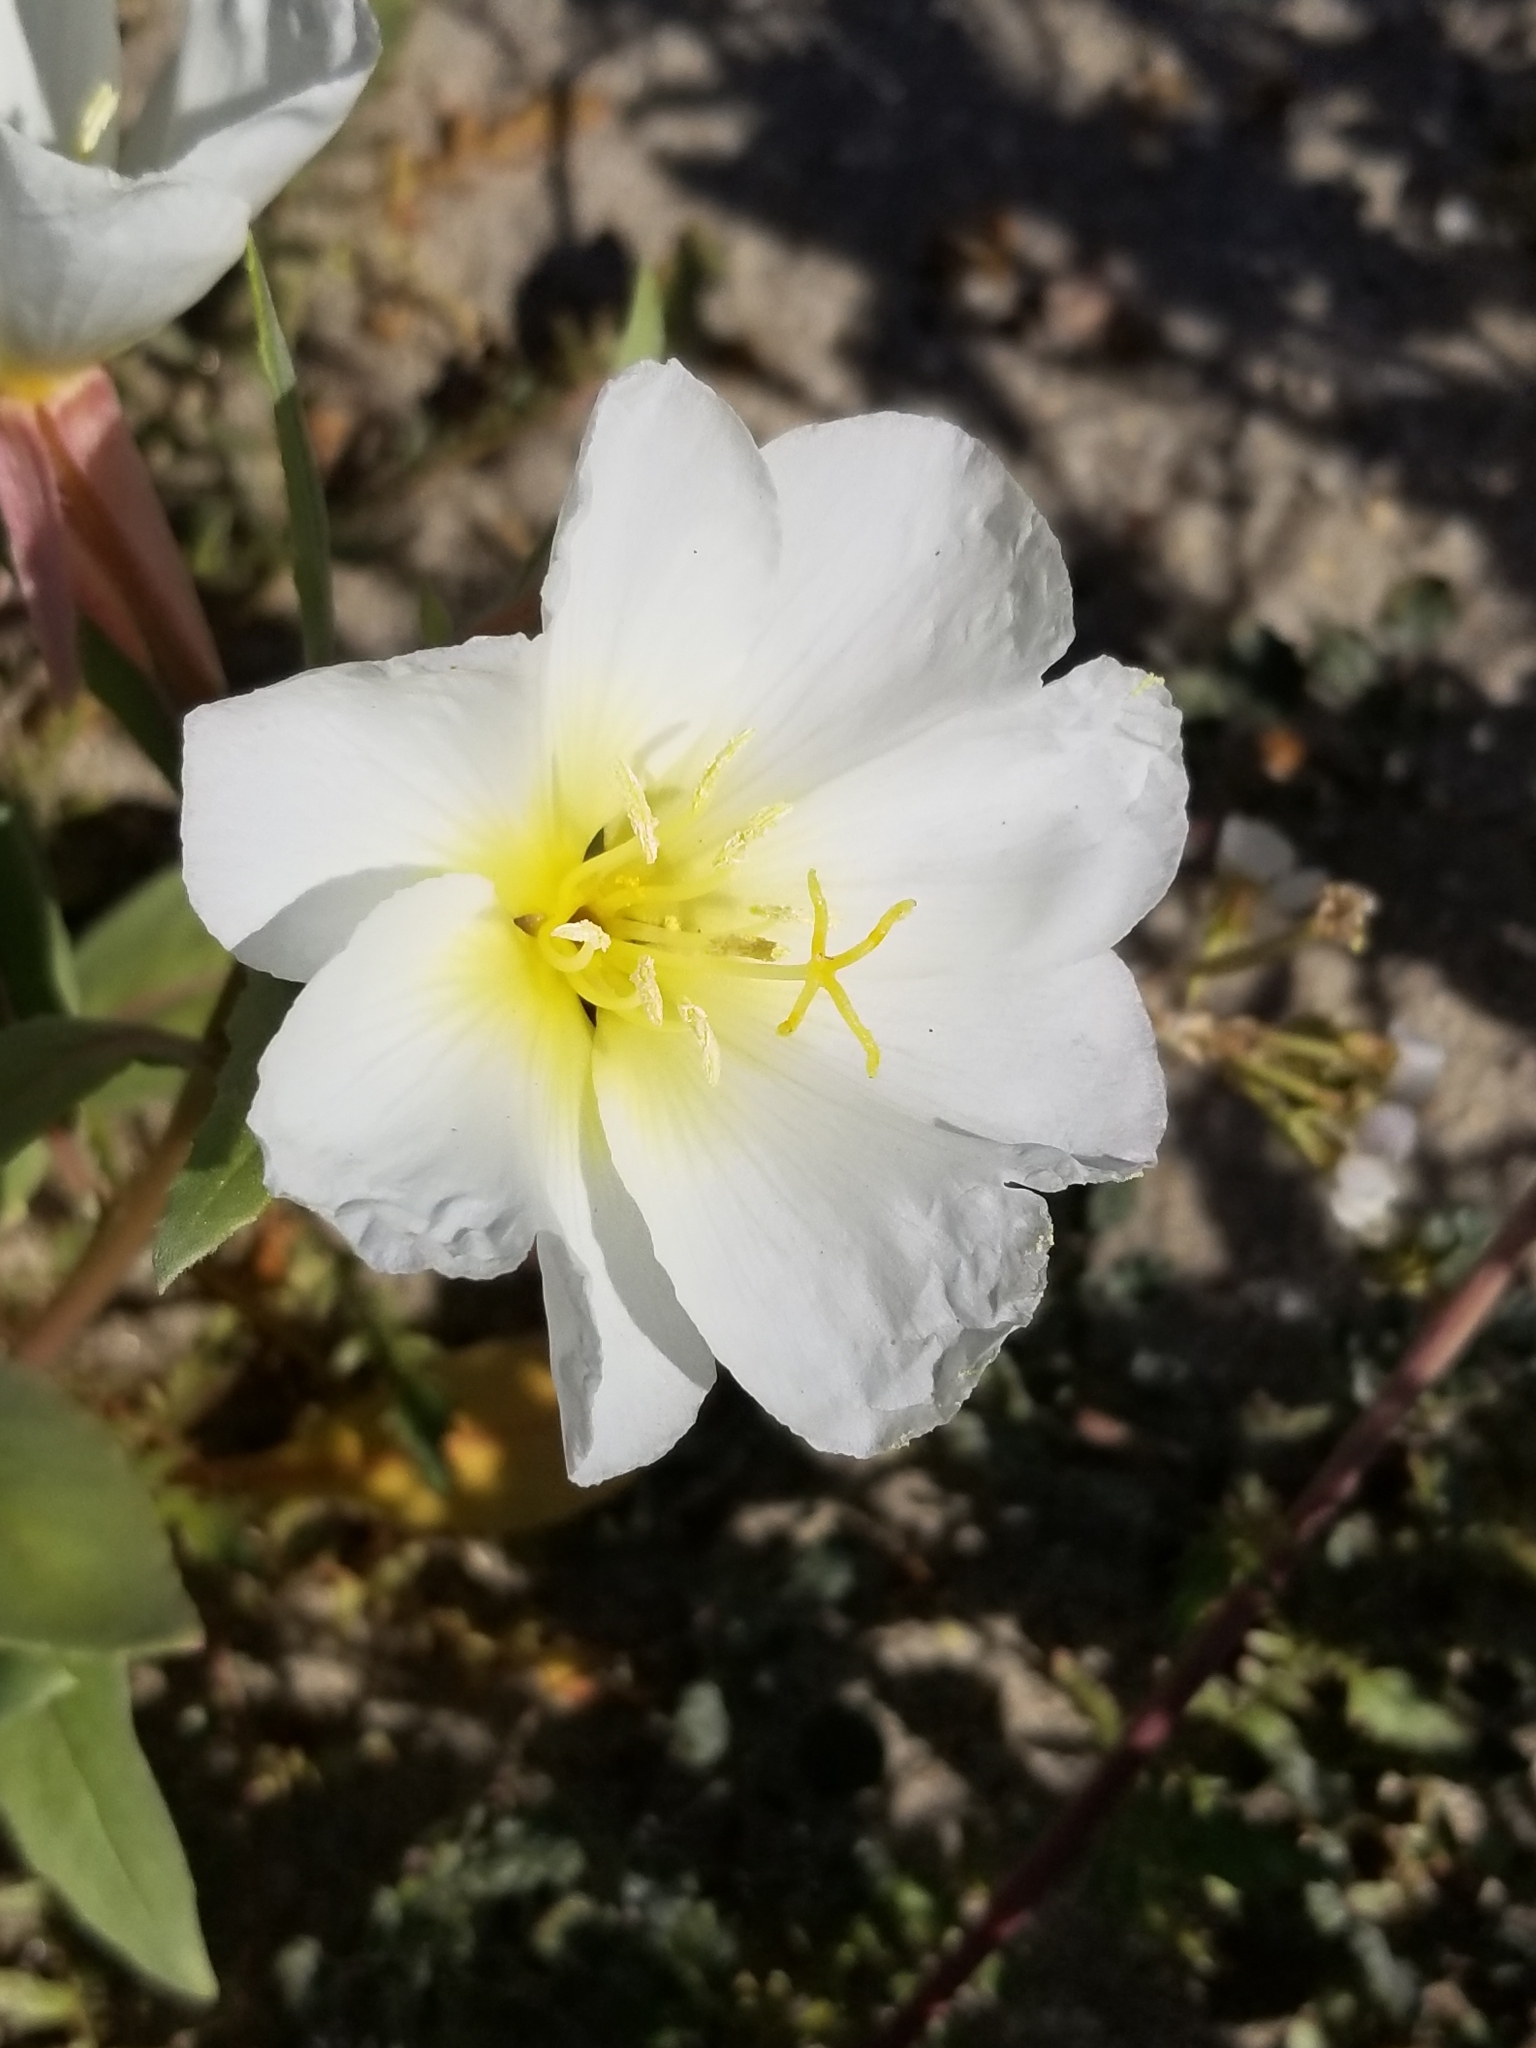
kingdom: Plantae
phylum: Tracheophyta
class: Magnoliopsida
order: Myrtales
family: Onagraceae
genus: Oenothera
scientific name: Oenothera deltoides
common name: Basket evening-primrose
